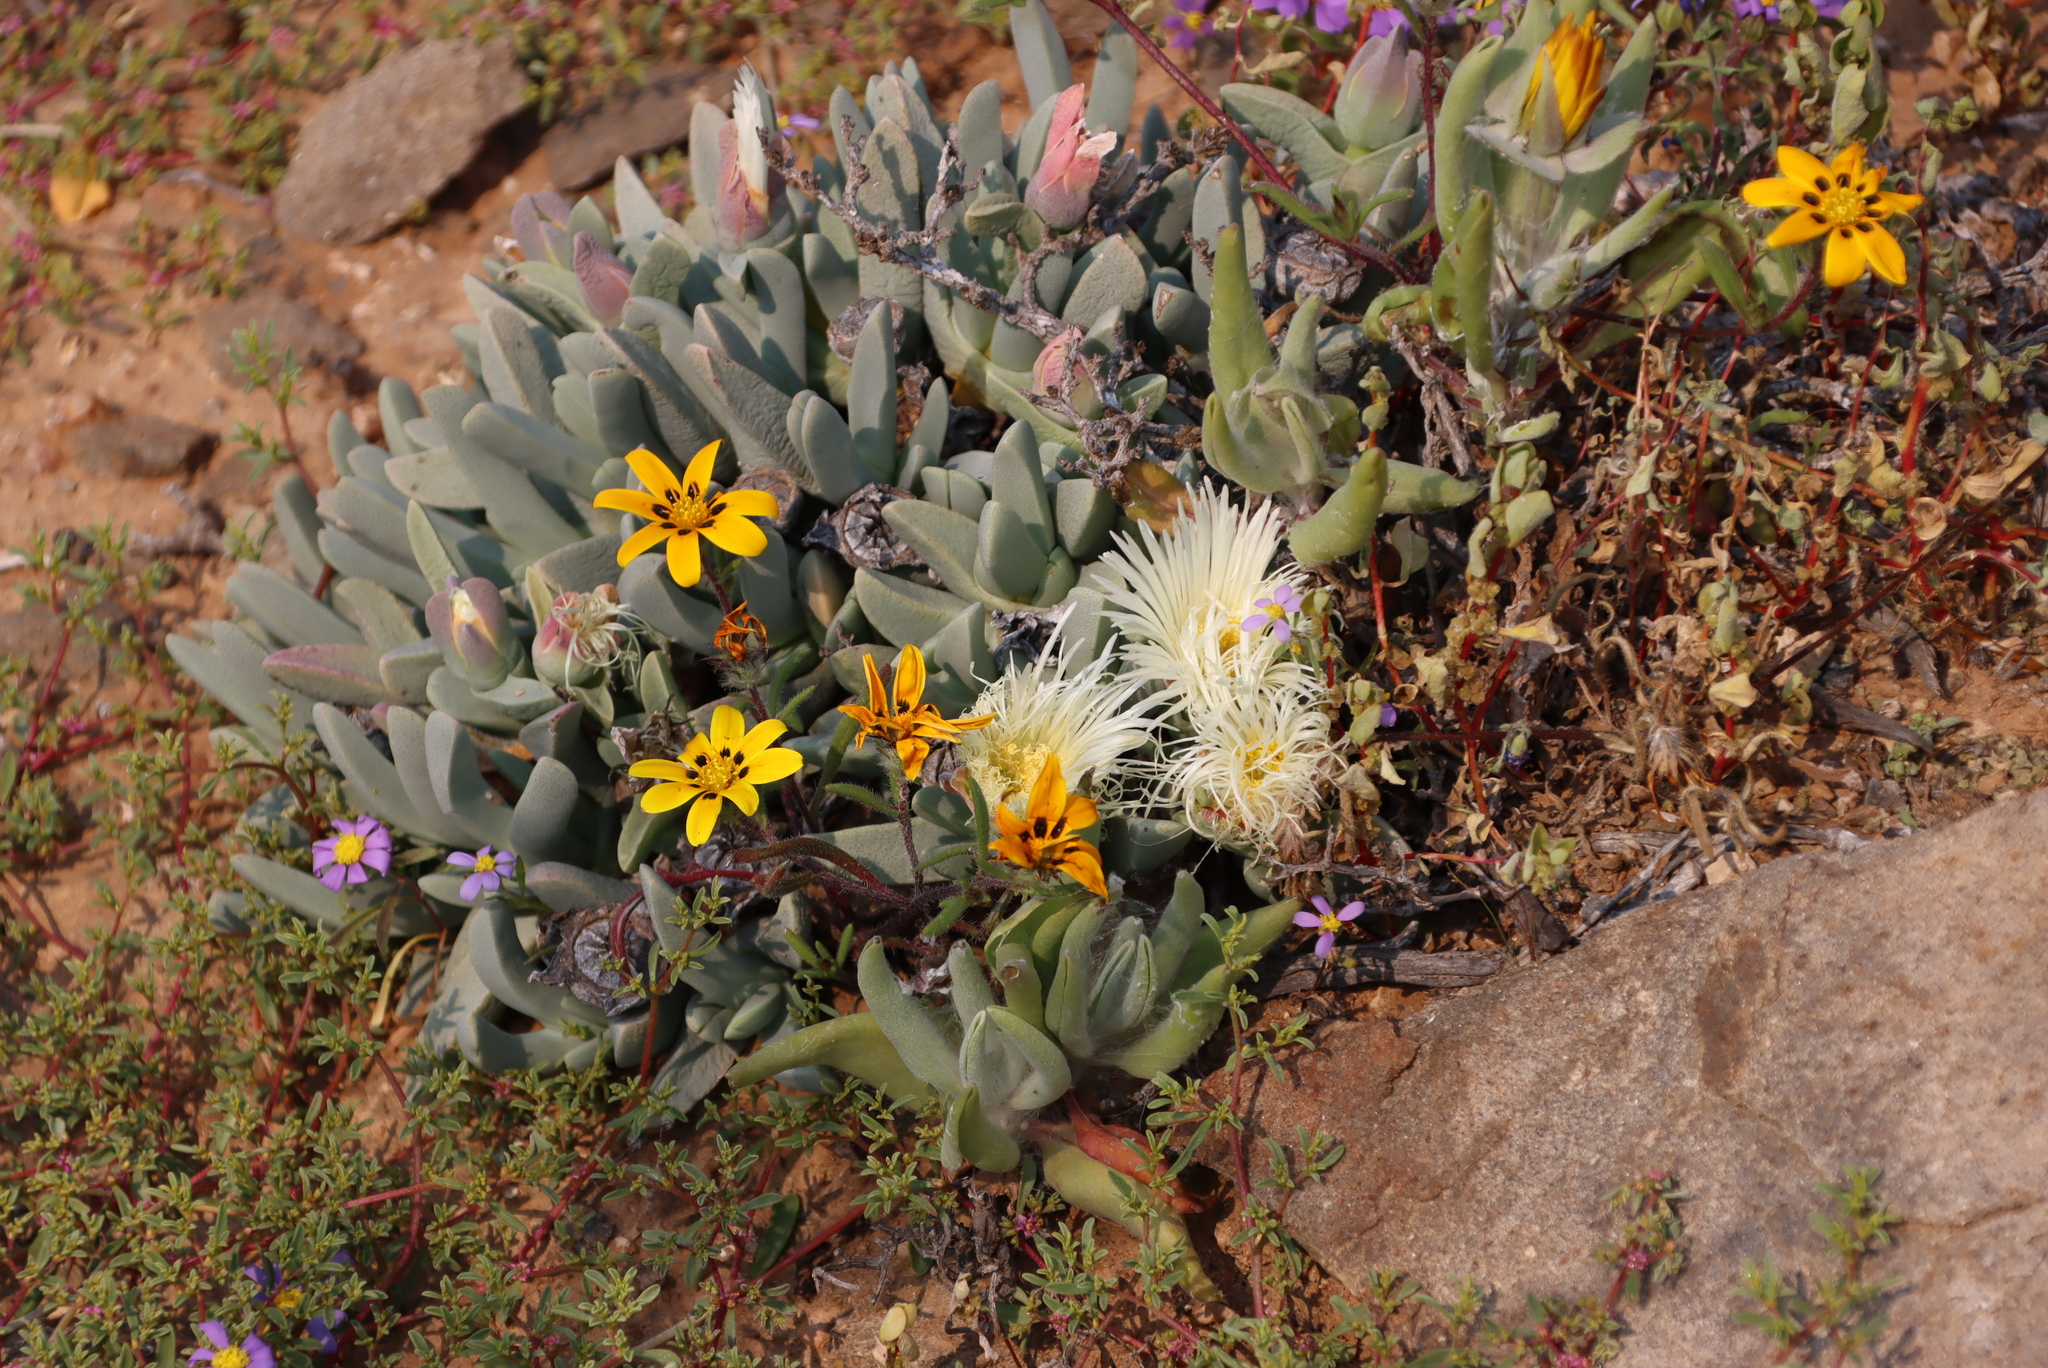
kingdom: Plantae
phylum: Tracheophyta
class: Magnoliopsida
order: Caryophyllales
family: Aizoaceae
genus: Cheiridopsis
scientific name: Cheiridopsis acuminata
